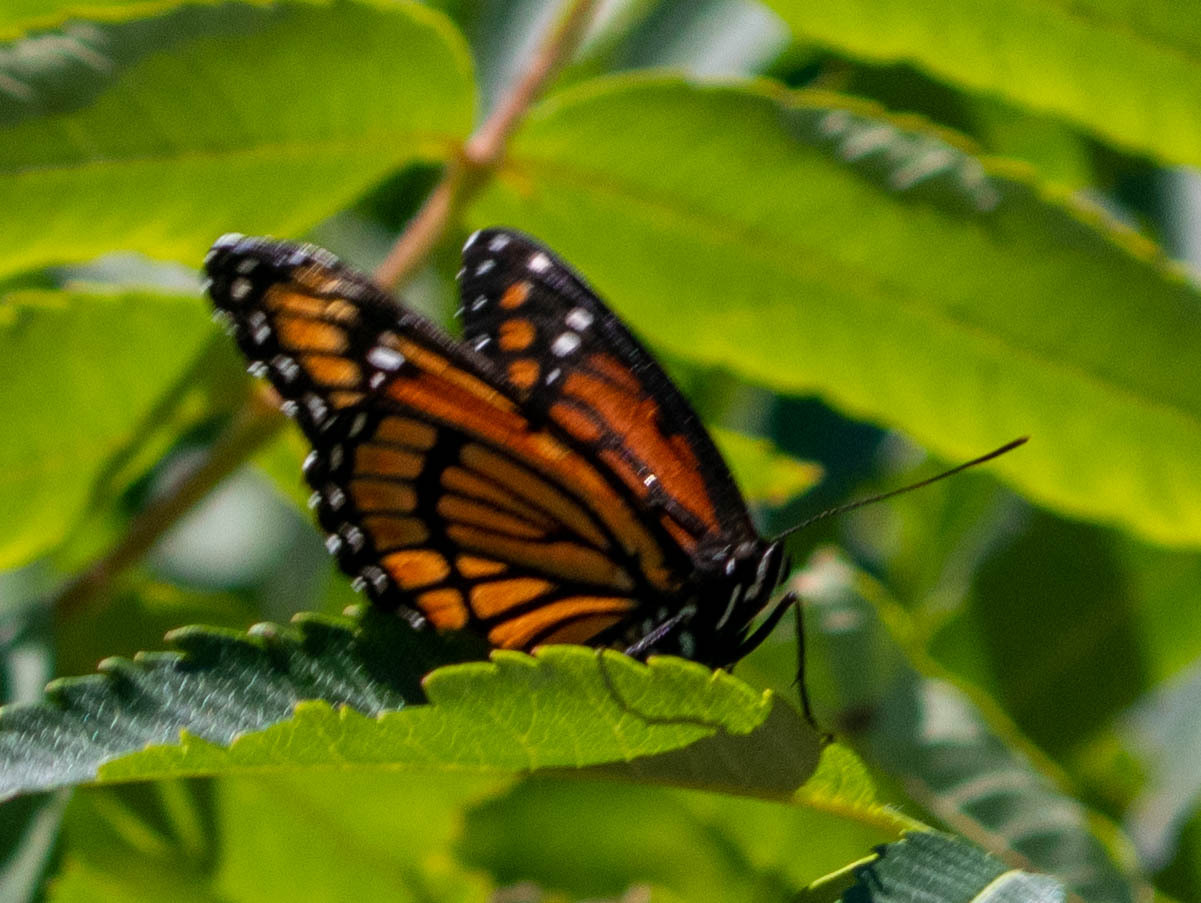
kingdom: Animalia
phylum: Arthropoda
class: Insecta
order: Lepidoptera
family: Nymphalidae
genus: Limenitis
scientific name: Limenitis archippus
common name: Viceroy
